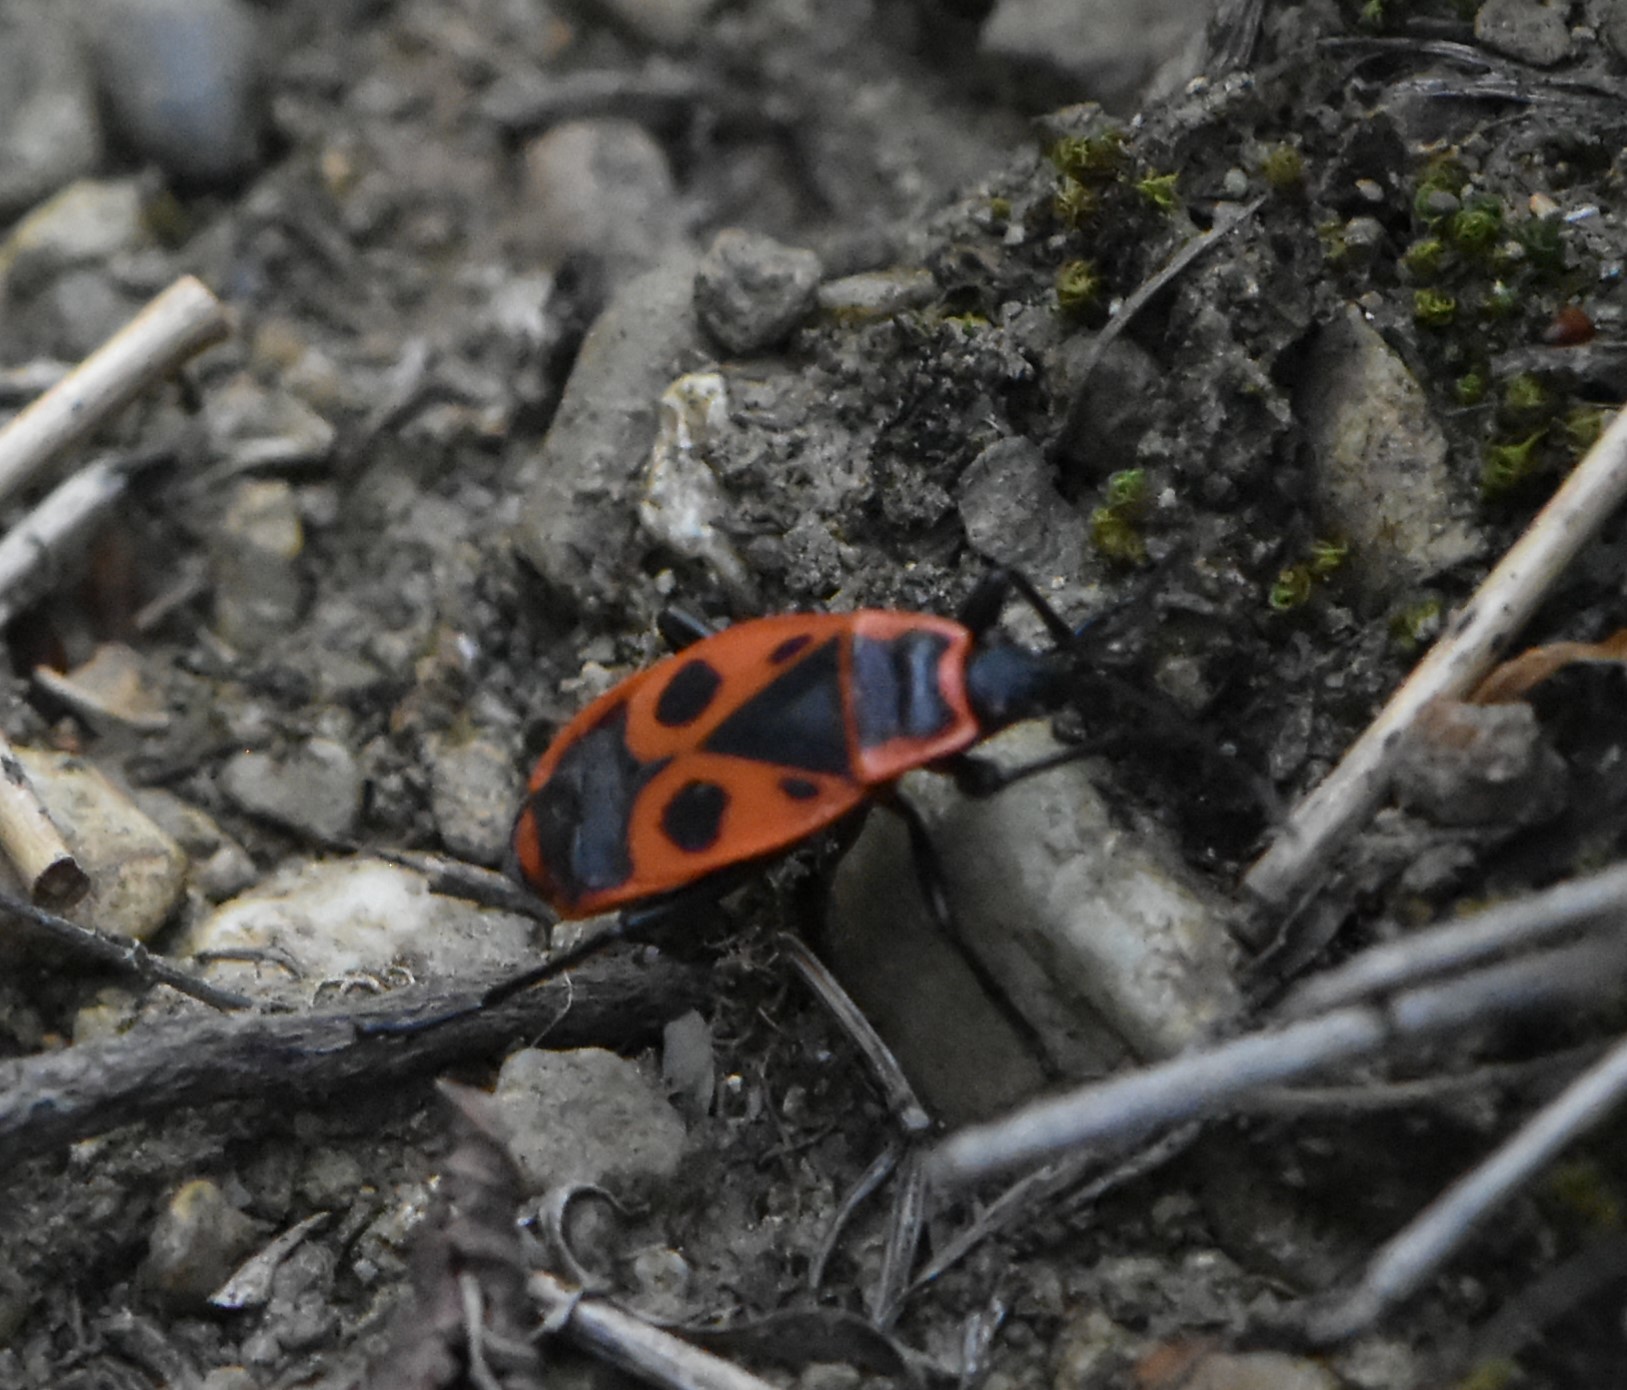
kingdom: Animalia
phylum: Arthropoda
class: Insecta
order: Hemiptera
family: Pyrrhocoridae
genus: Pyrrhocoris
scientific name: Pyrrhocoris apterus
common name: Firebug
